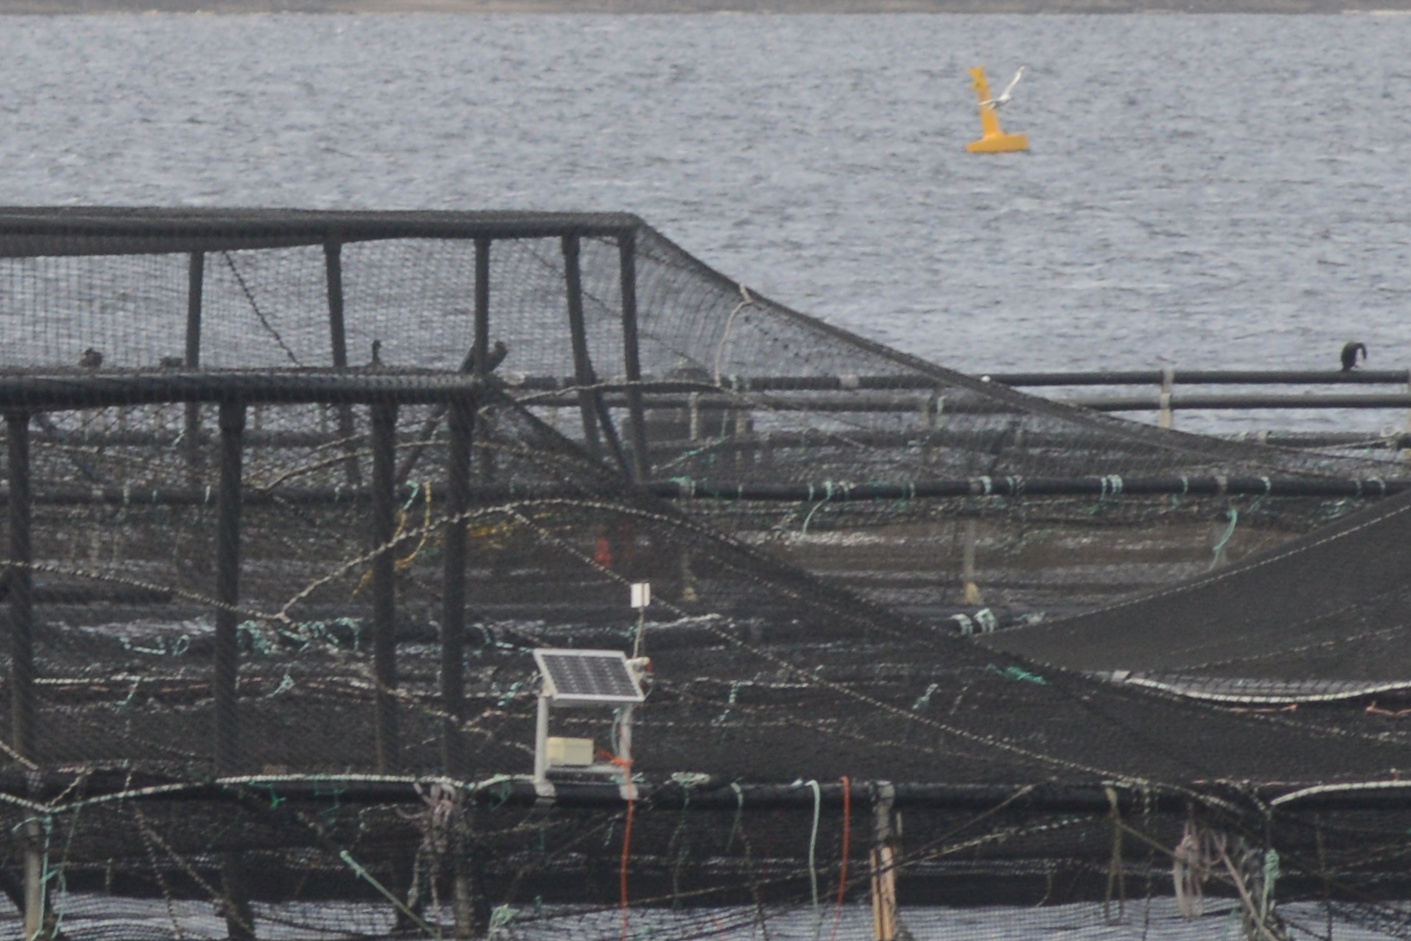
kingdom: Animalia
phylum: Chordata
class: Aves
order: Suliformes
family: Phalacrocoracidae
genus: Phalacrocorax
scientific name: Phalacrocorax carbo
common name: Great cormorant
